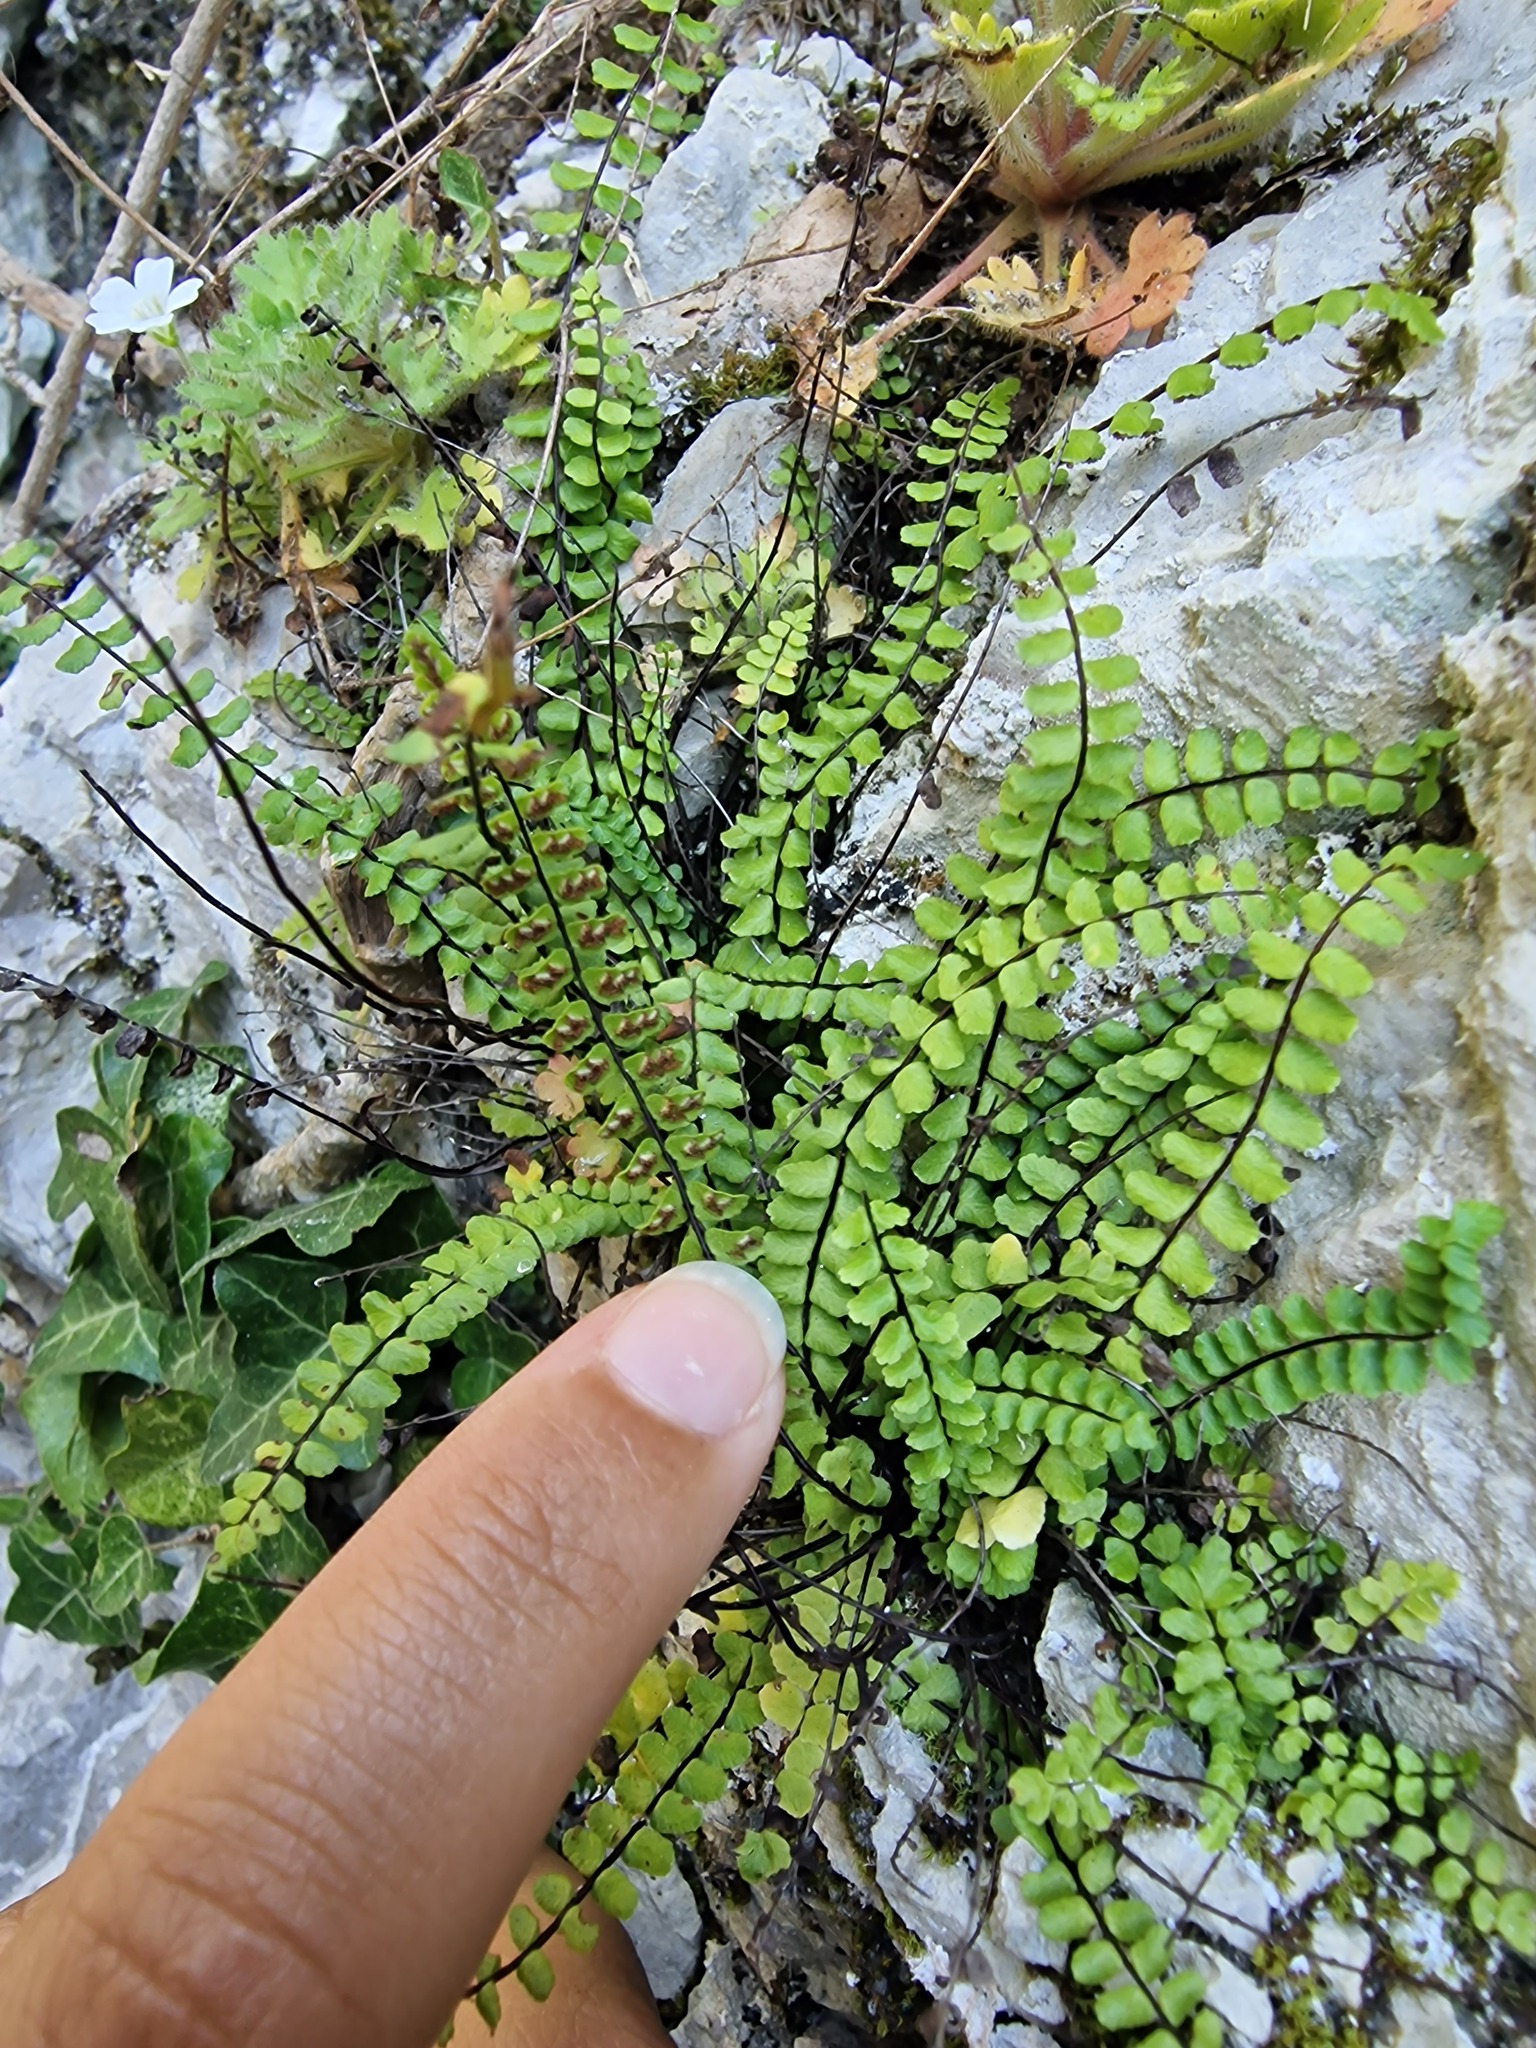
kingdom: Plantae
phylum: Tracheophyta
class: Polypodiopsida
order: Polypodiales
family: Aspleniaceae
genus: Asplenium
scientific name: Asplenium trichomanes
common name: Maidenhair spleenwort
